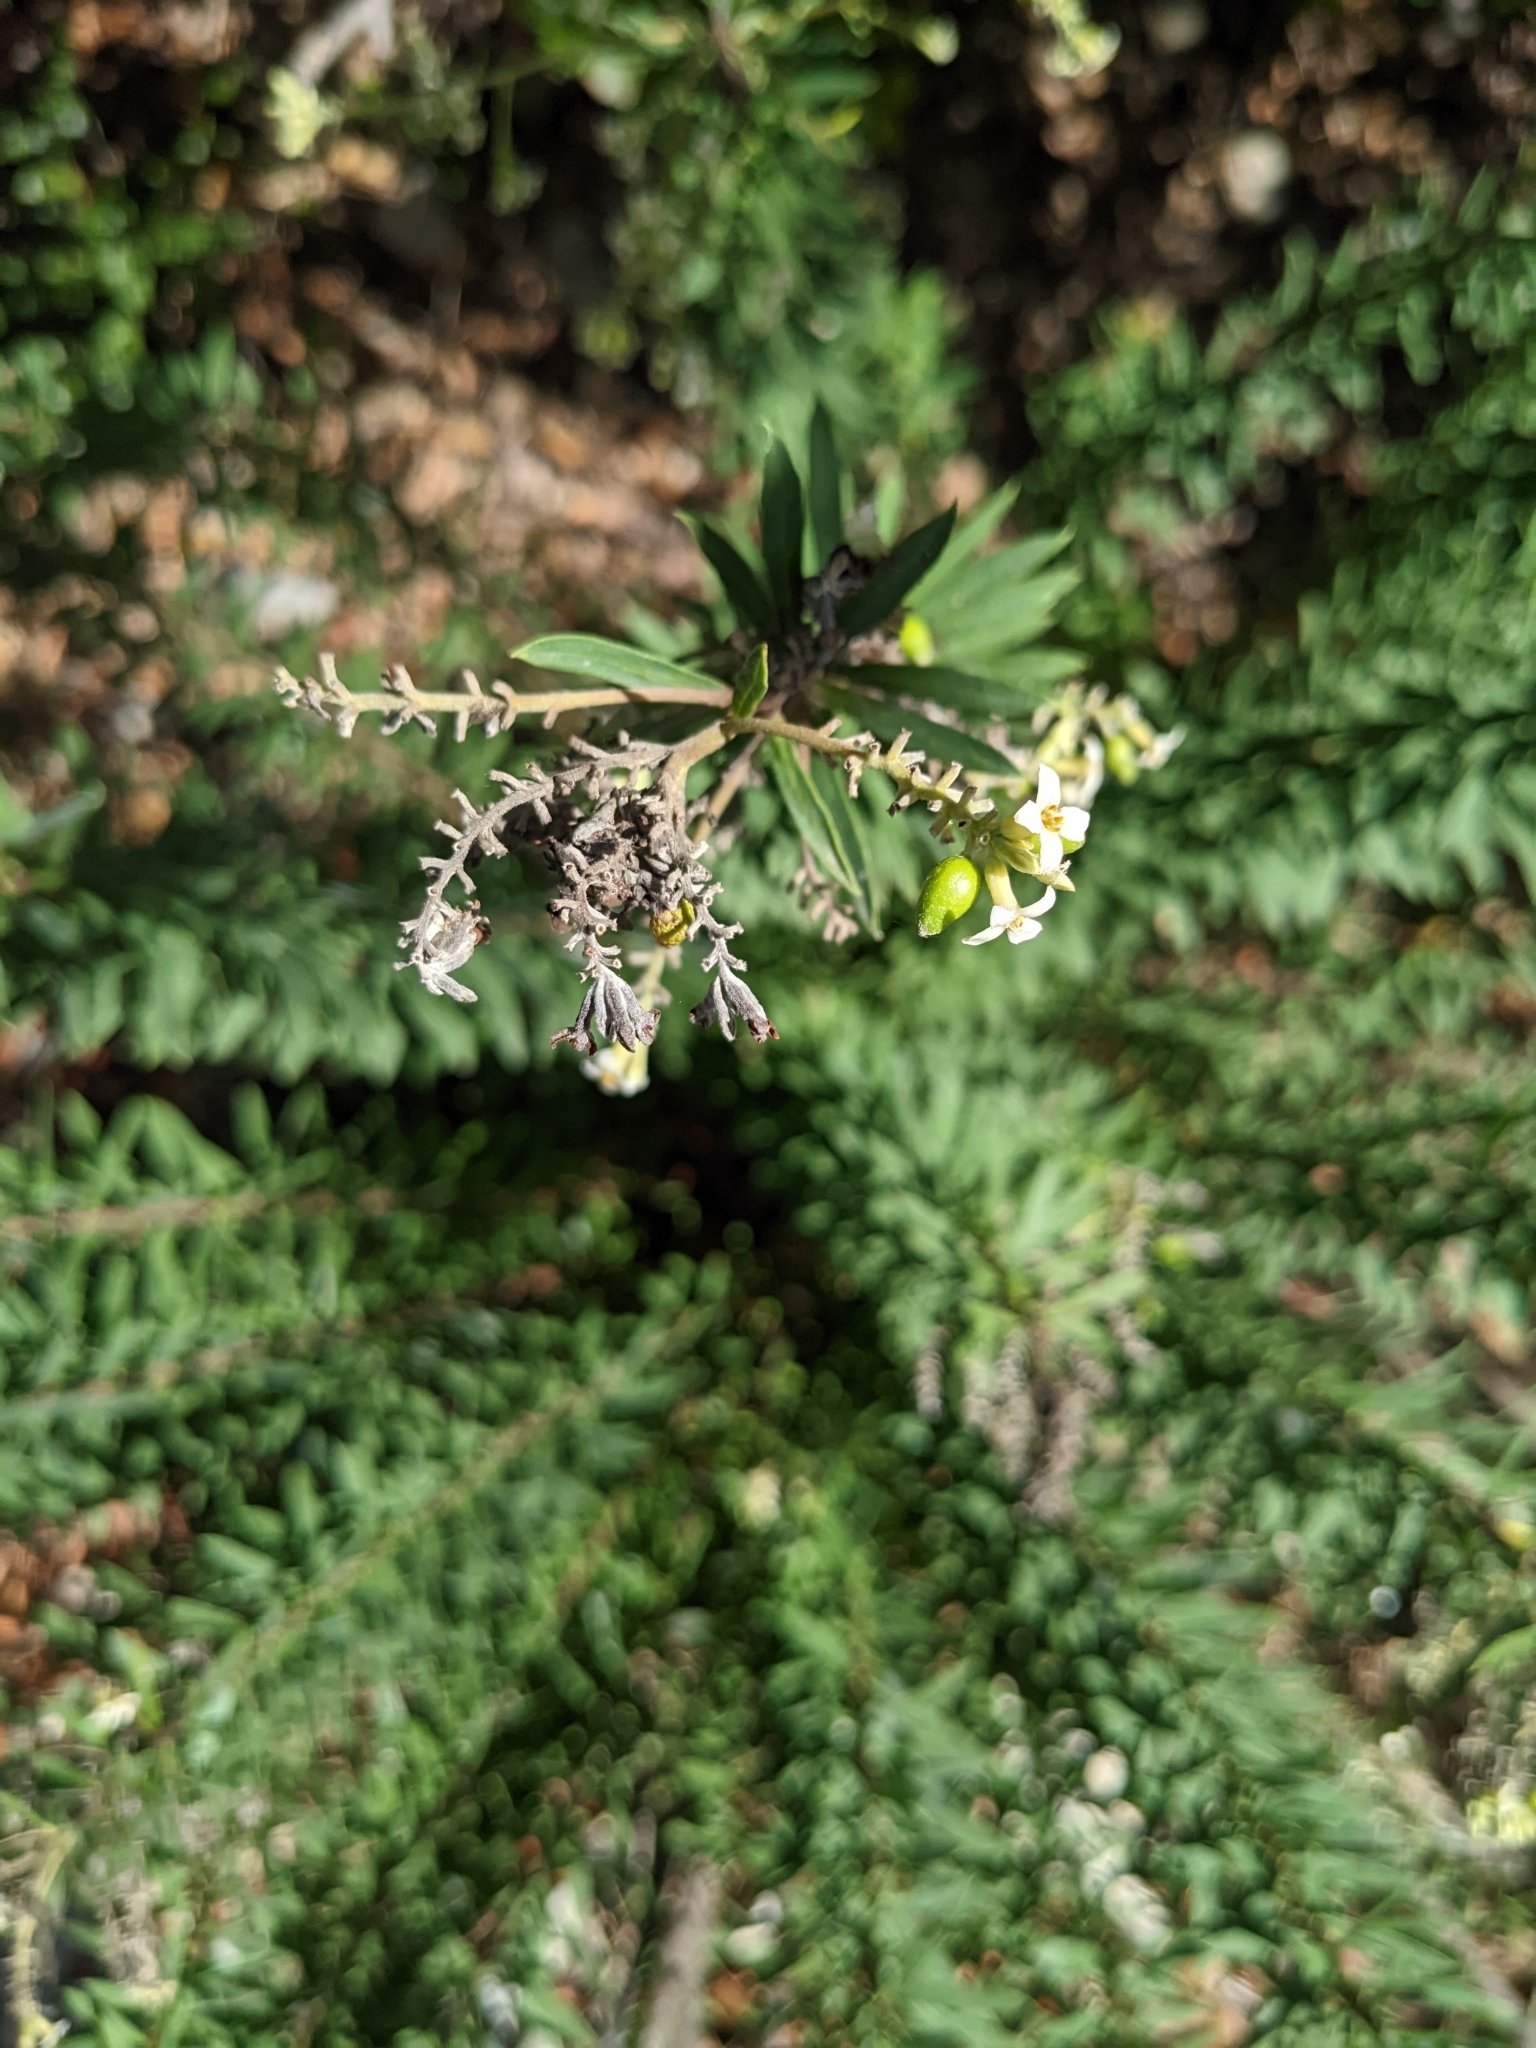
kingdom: Plantae
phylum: Tracheophyta
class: Magnoliopsida
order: Malvales
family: Thymelaeaceae
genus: Daphne
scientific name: Daphne gnidium
